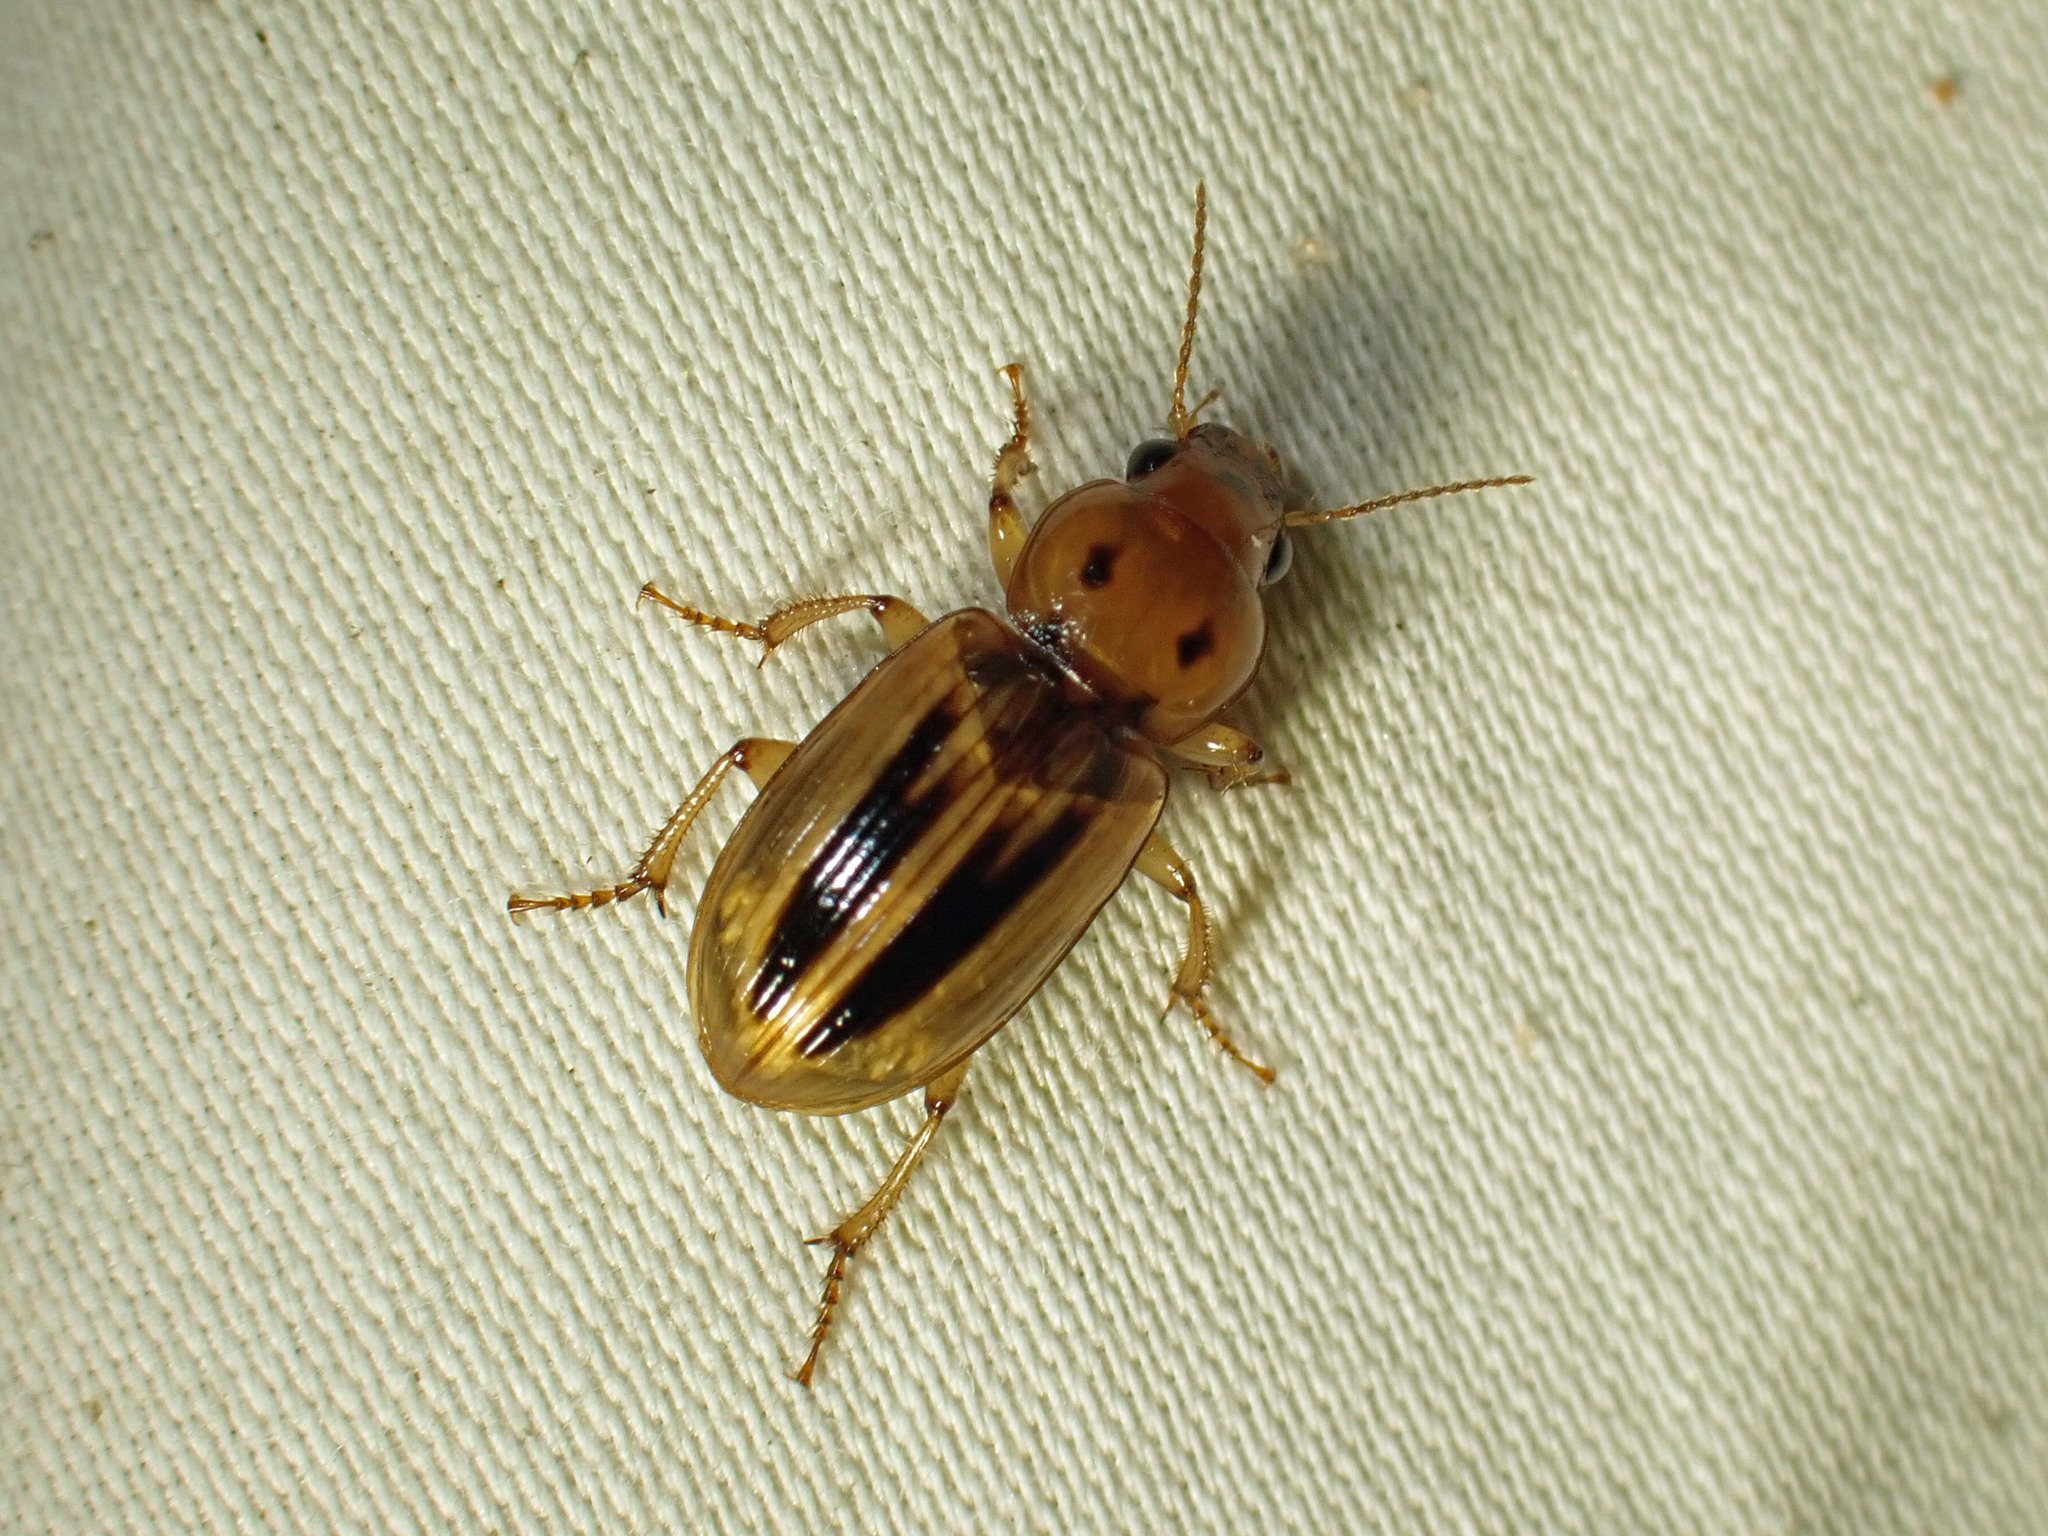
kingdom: Animalia
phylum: Arthropoda
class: Insecta
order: Coleoptera
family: Carabidae
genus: Stenolophus
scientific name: Stenolophus lineola
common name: Lined stenolophus
